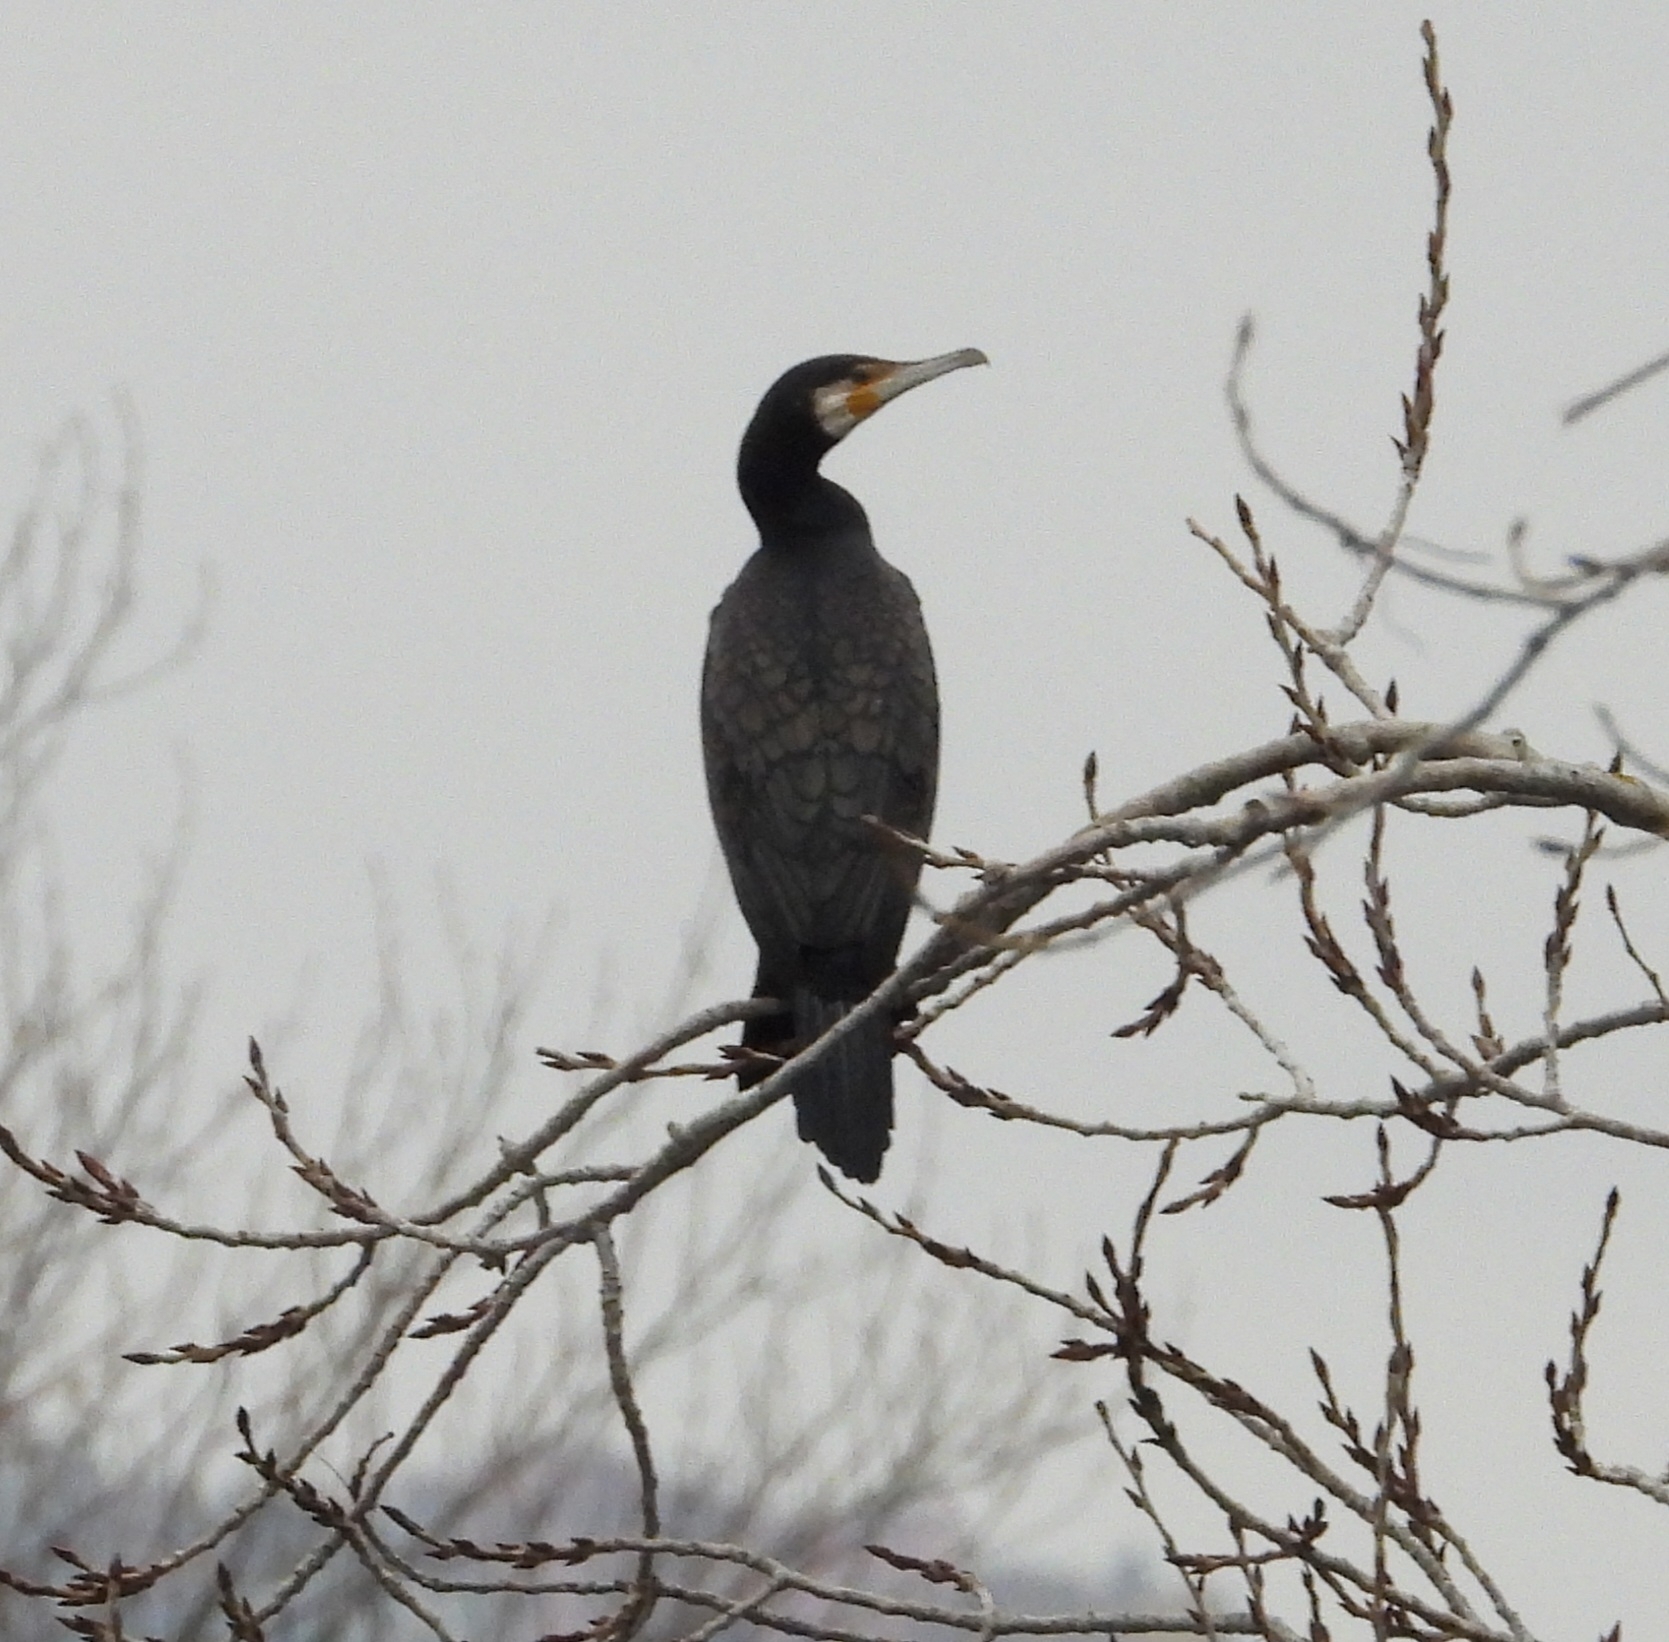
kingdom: Animalia
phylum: Chordata
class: Aves
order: Suliformes
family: Phalacrocoracidae
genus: Phalacrocorax
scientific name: Phalacrocorax carbo
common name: Great cormorant
